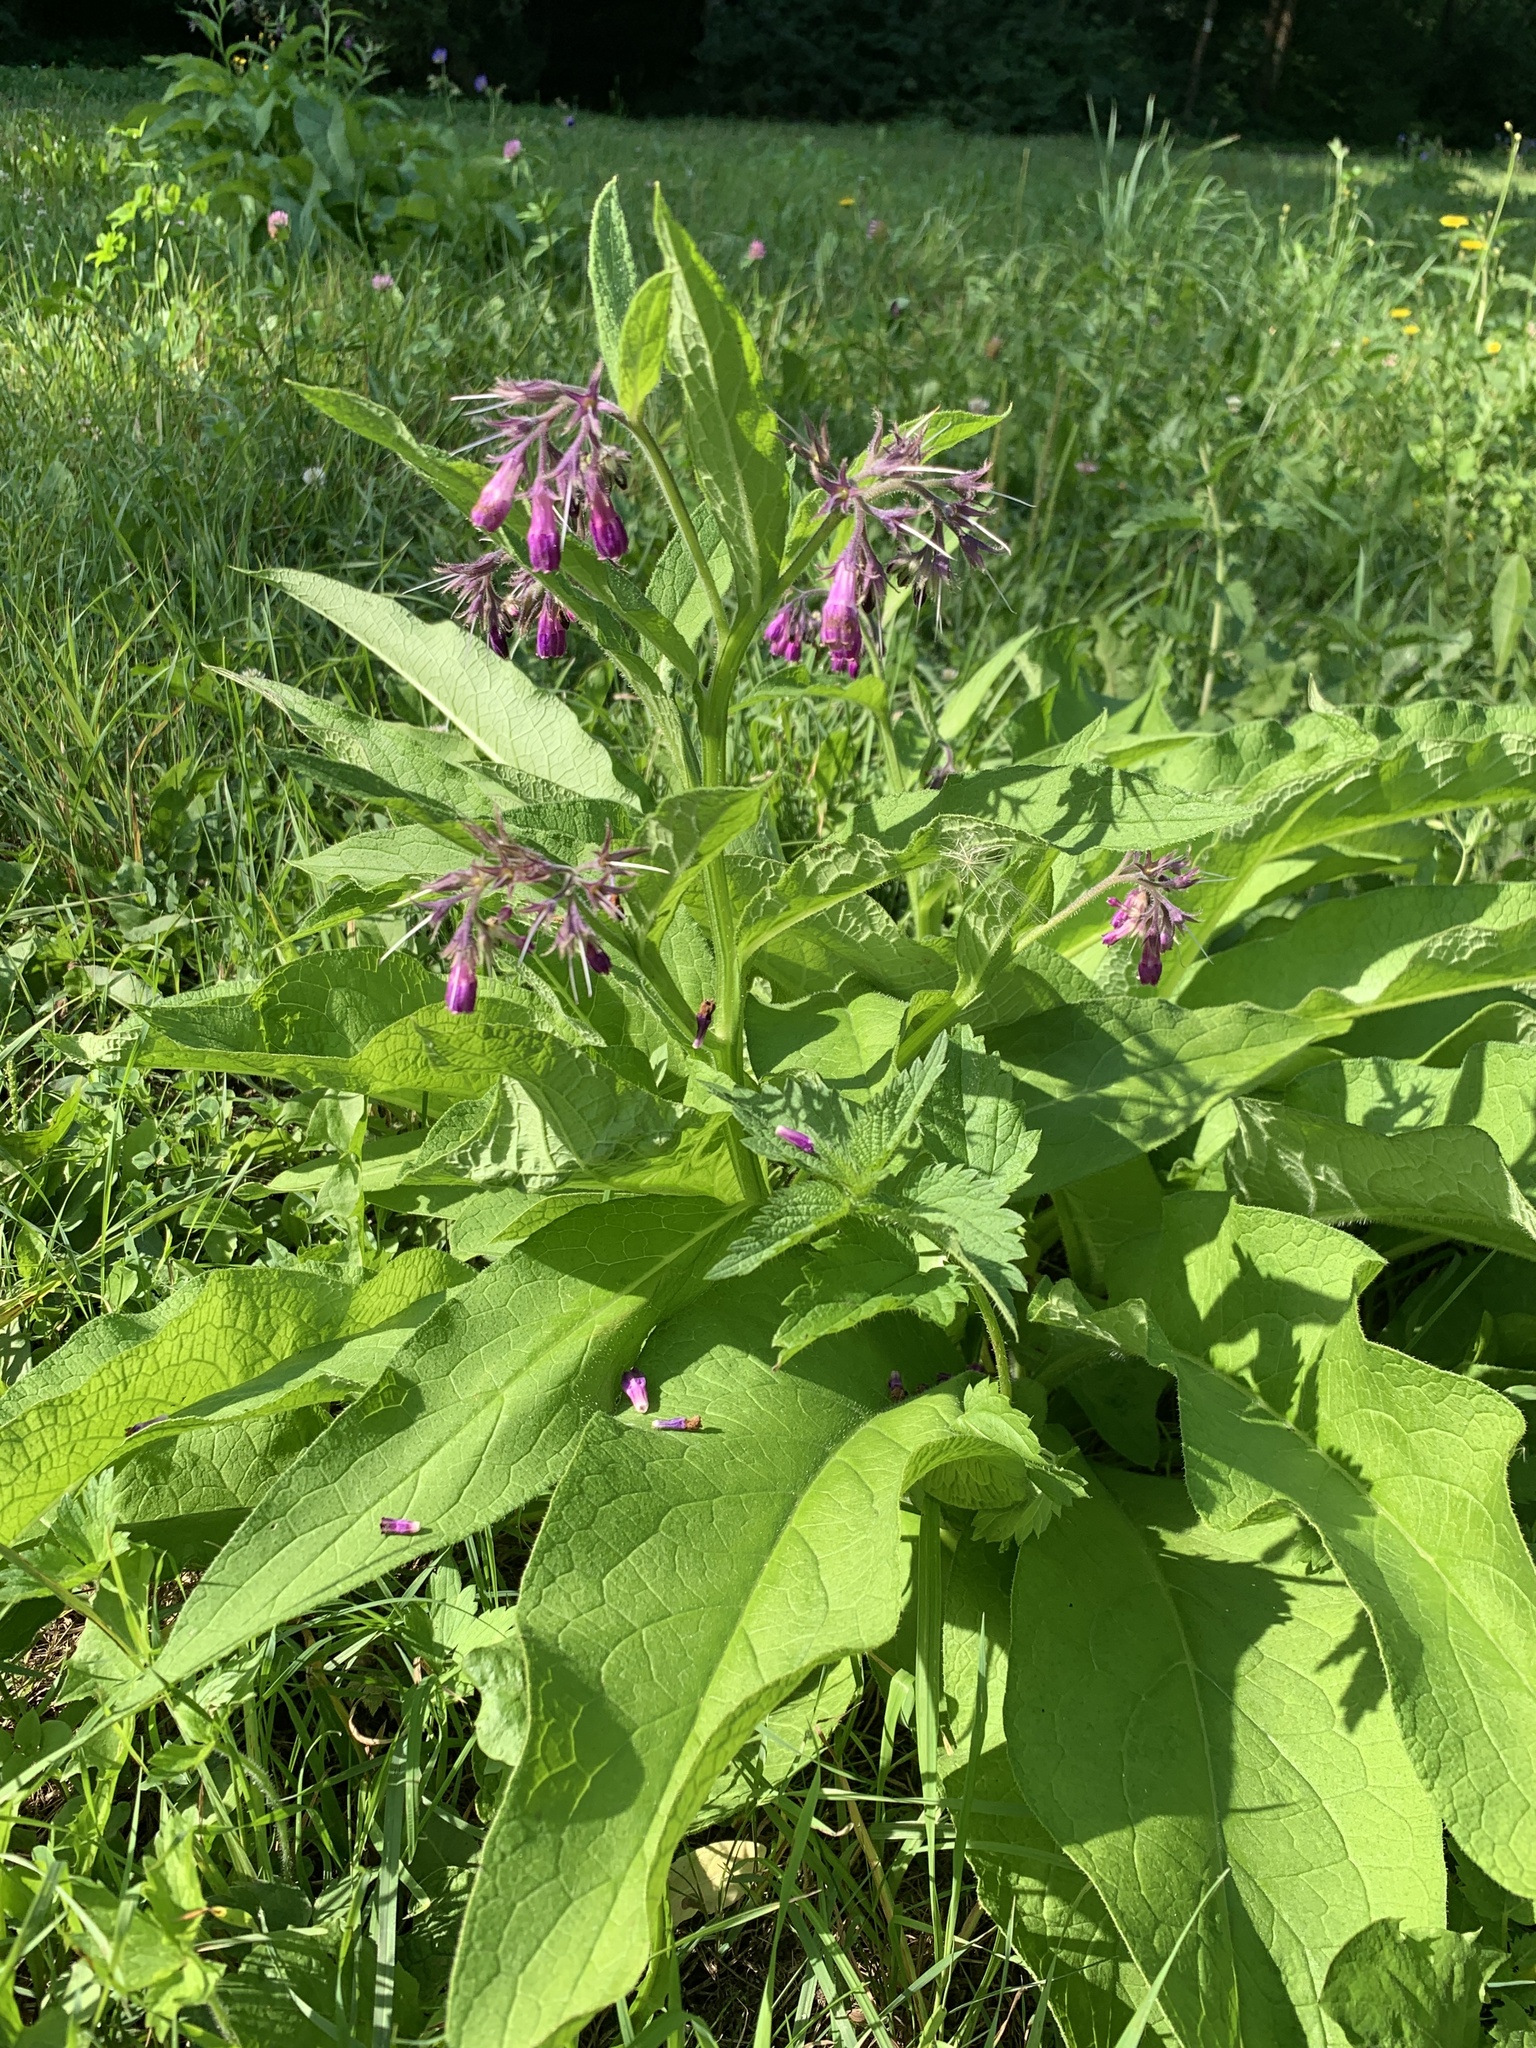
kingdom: Plantae
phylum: Tracheophyta
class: Magnoliopsida
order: Boraginales
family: Boraginaceae
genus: Symphytum
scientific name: Symphytum officinale
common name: Common comfrey
